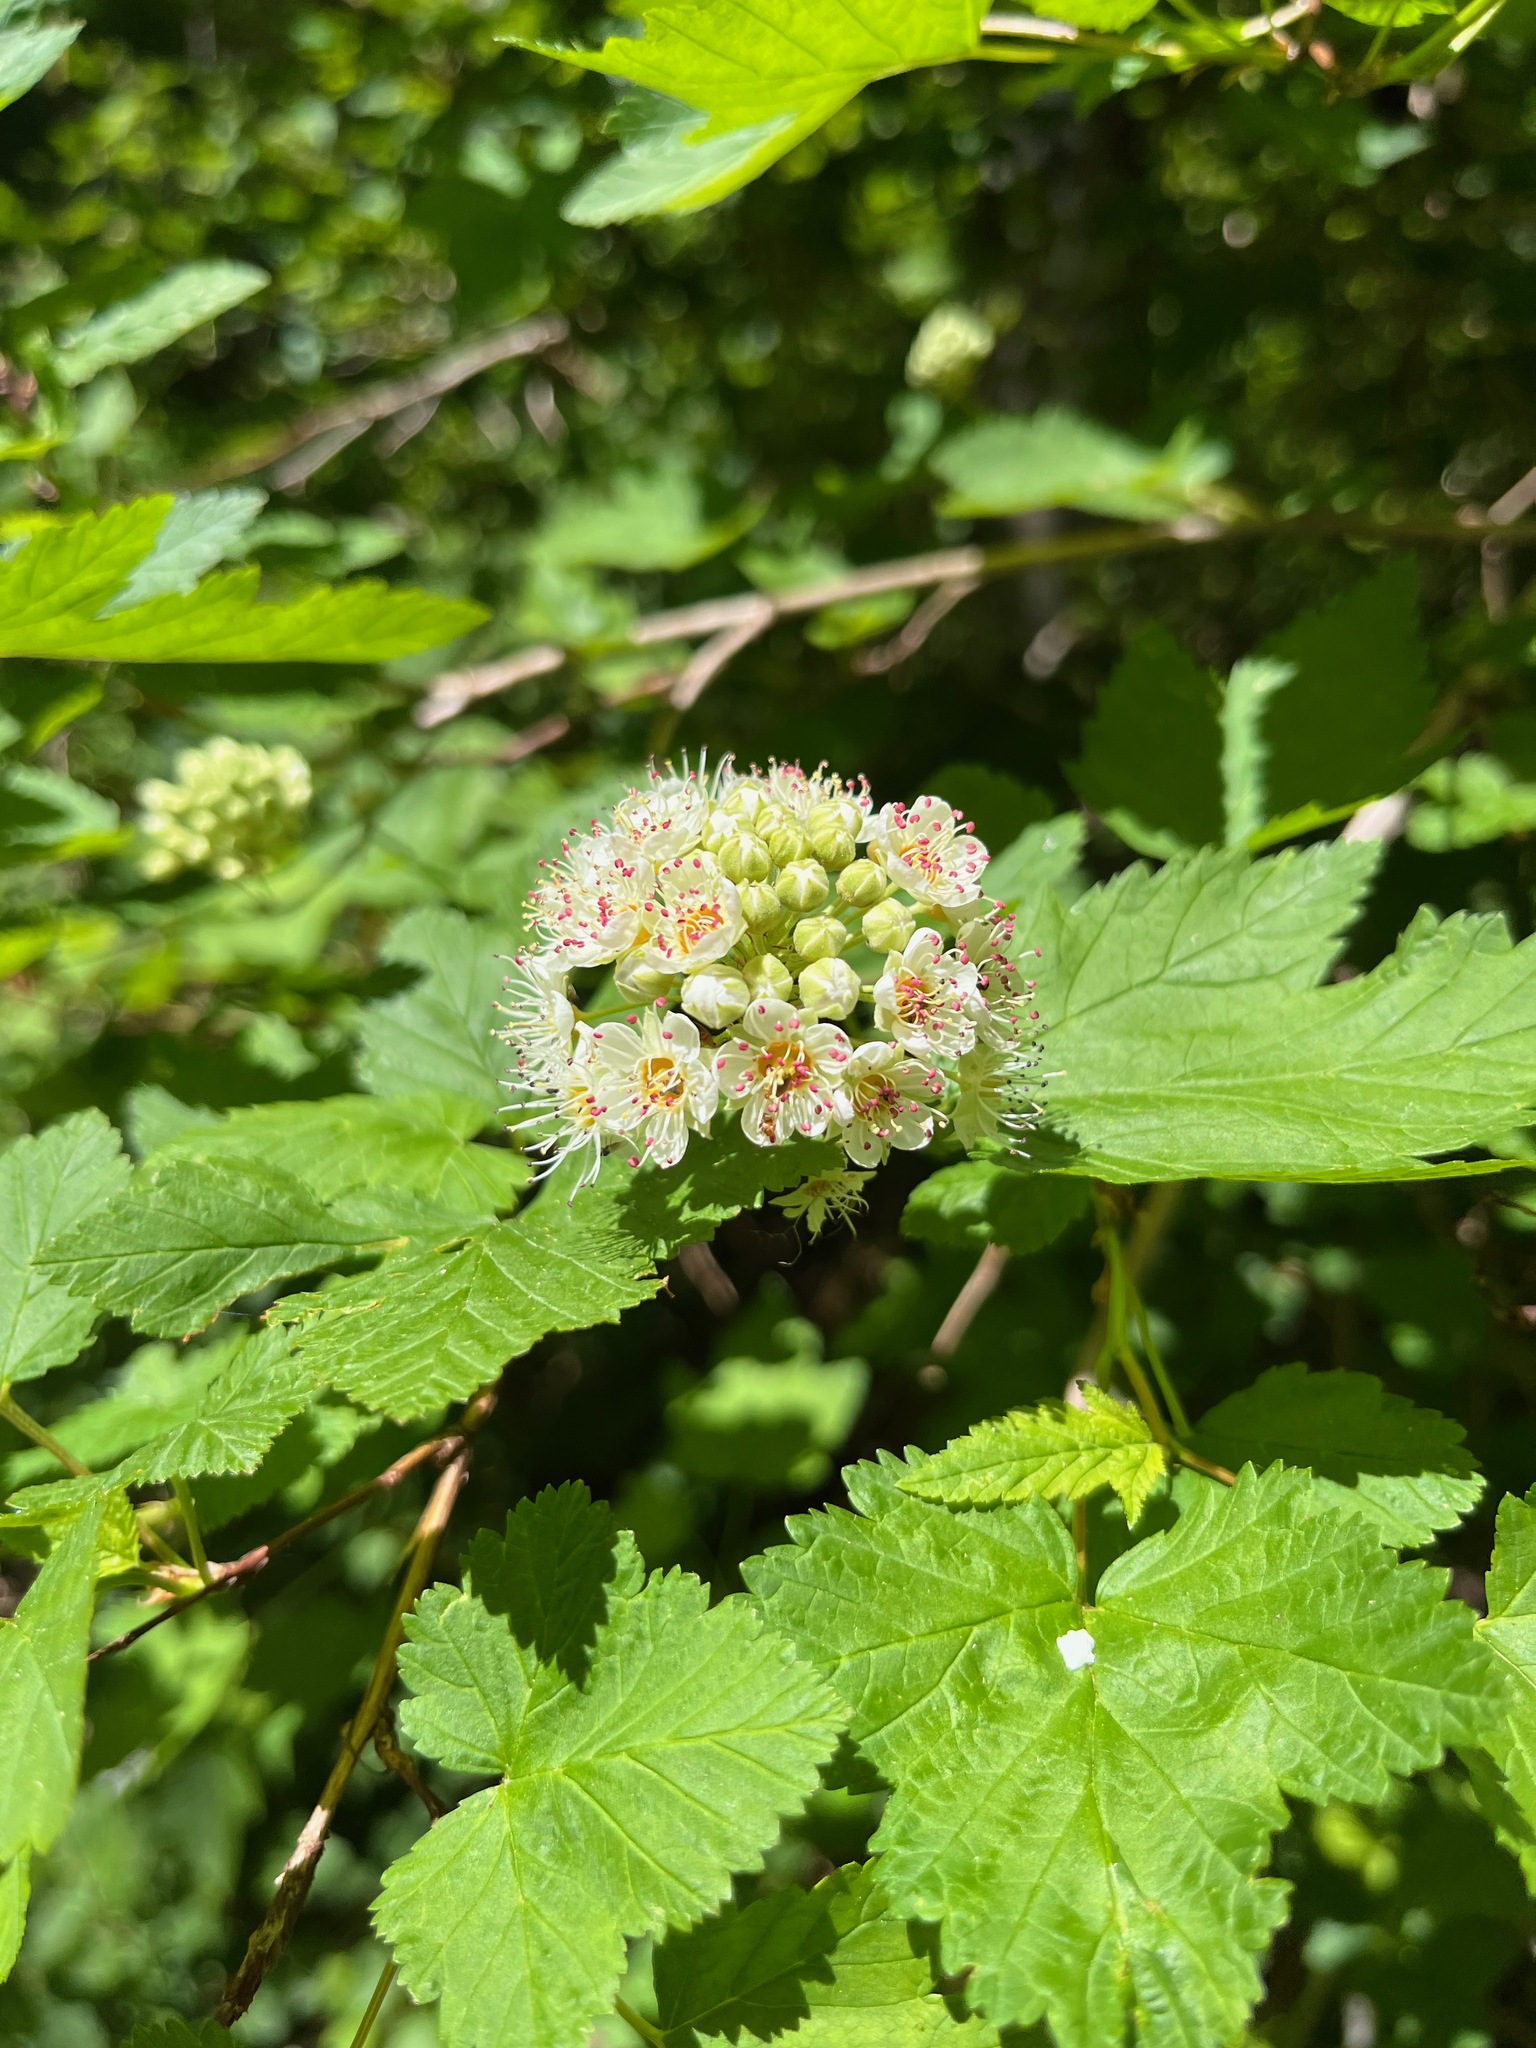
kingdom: Plantae
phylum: Tracheophyta
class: Magnoliopsida
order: Rosales
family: Rosaceae
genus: Physocarpus
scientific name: Physocarpus capitatus
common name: Pacific ninebark
